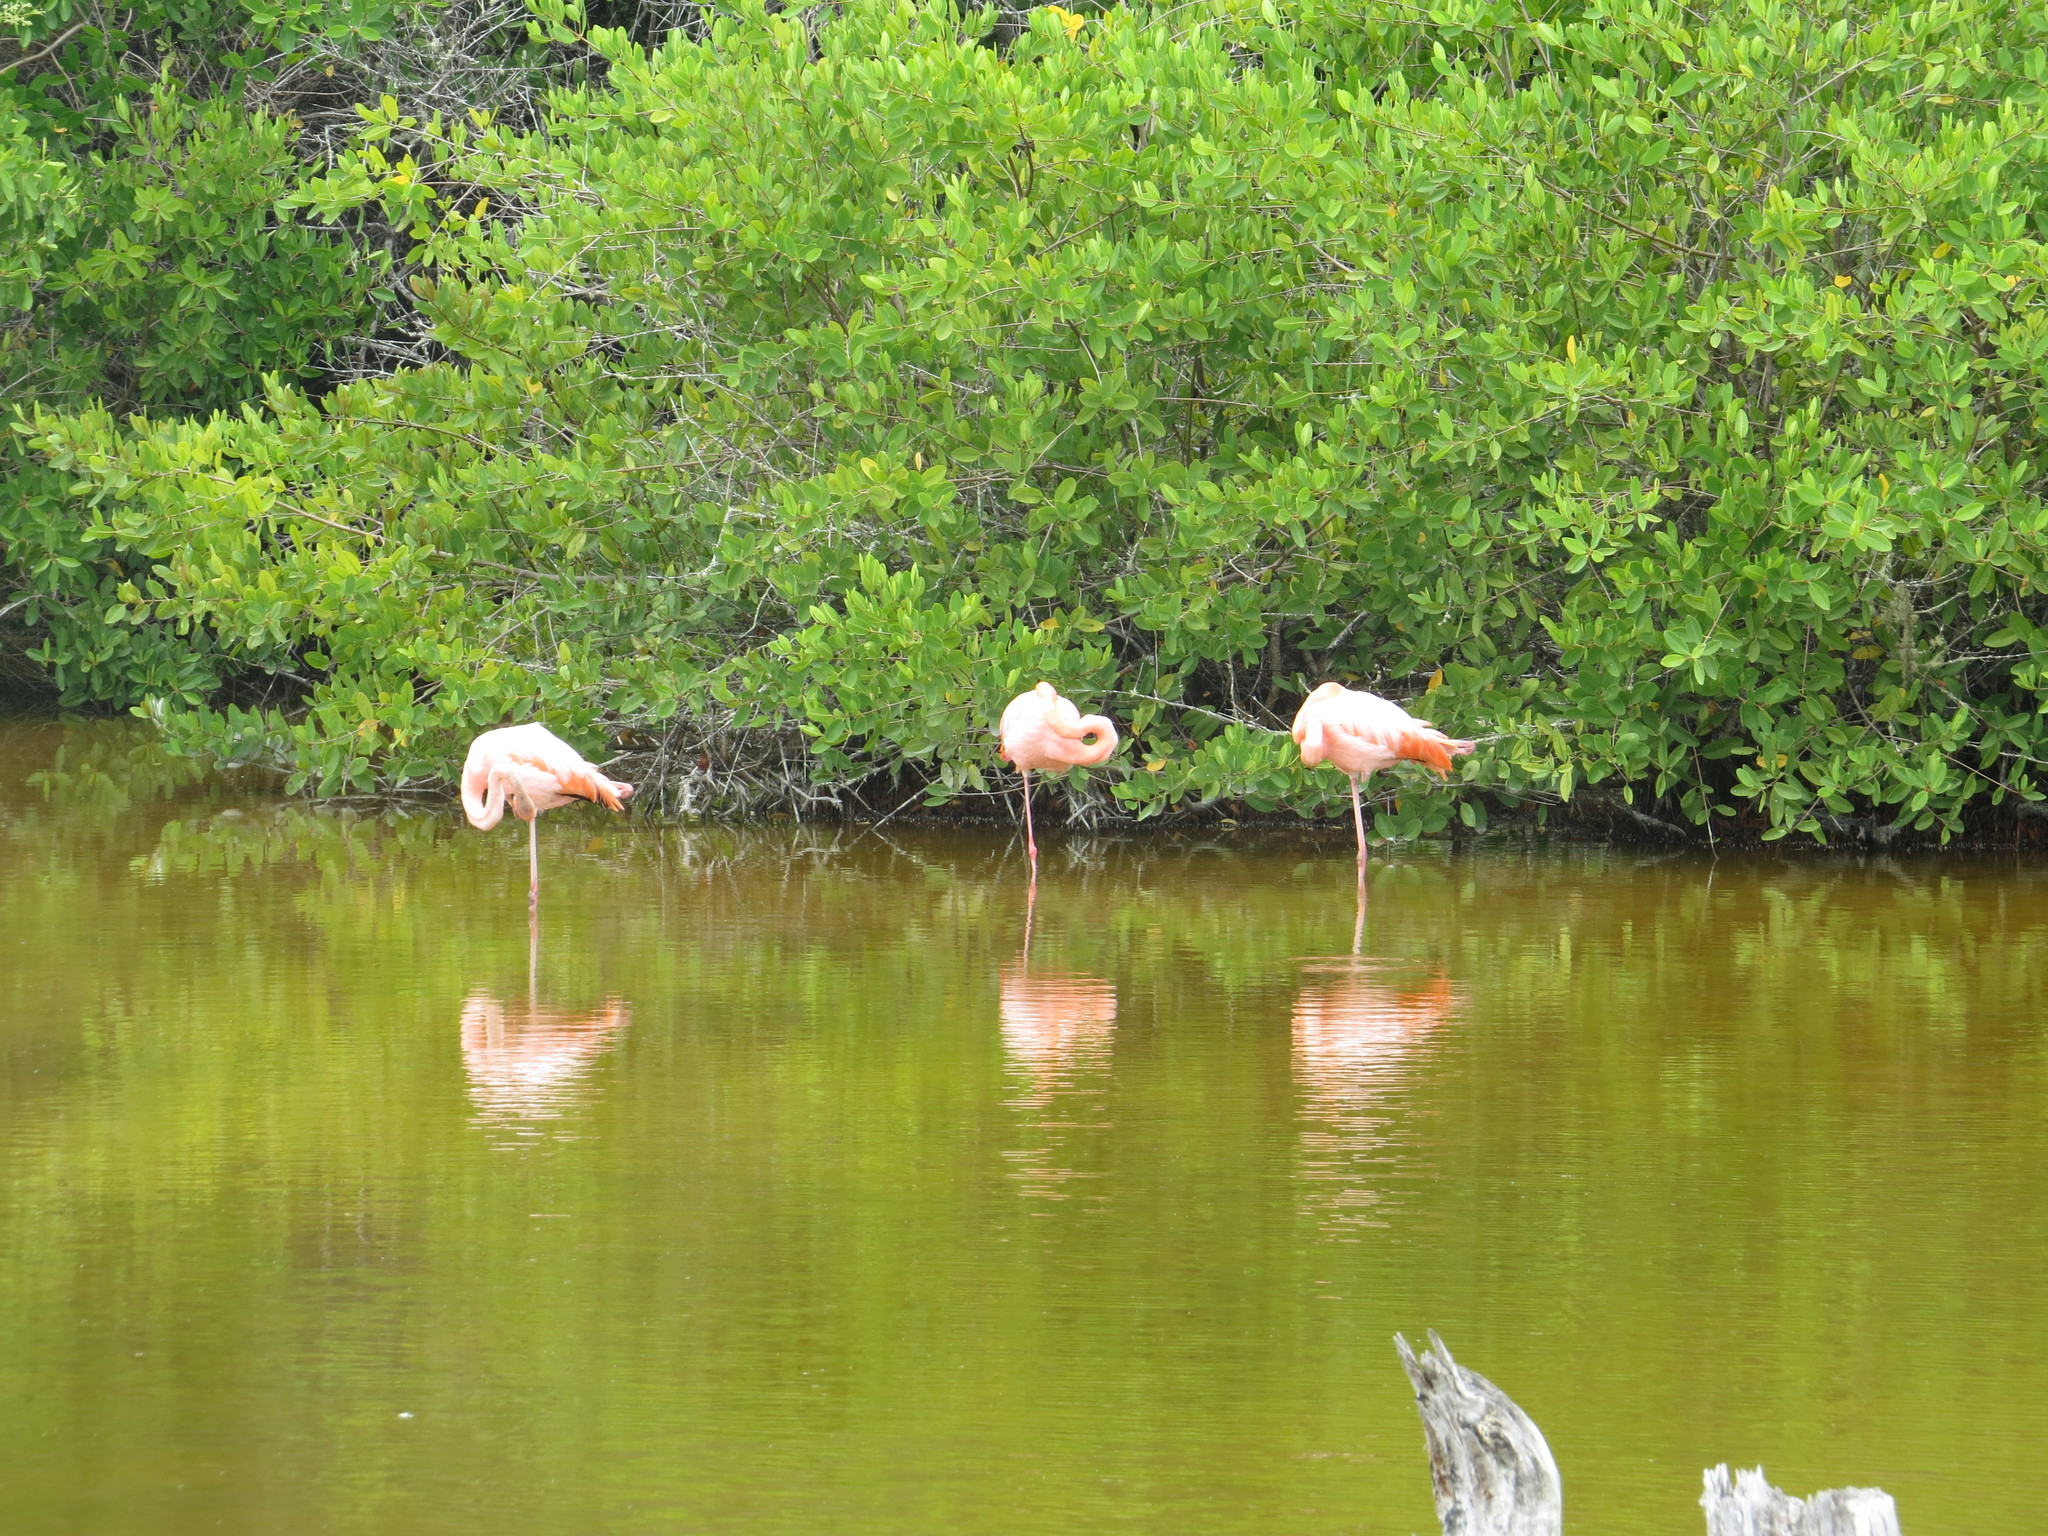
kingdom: Animalia
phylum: Chordata
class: Aves
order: Phoenicopteriformes
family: Phoenicopteridae
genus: Phoenicopterus
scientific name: Phoenicopterus ruber
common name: American flamingo
